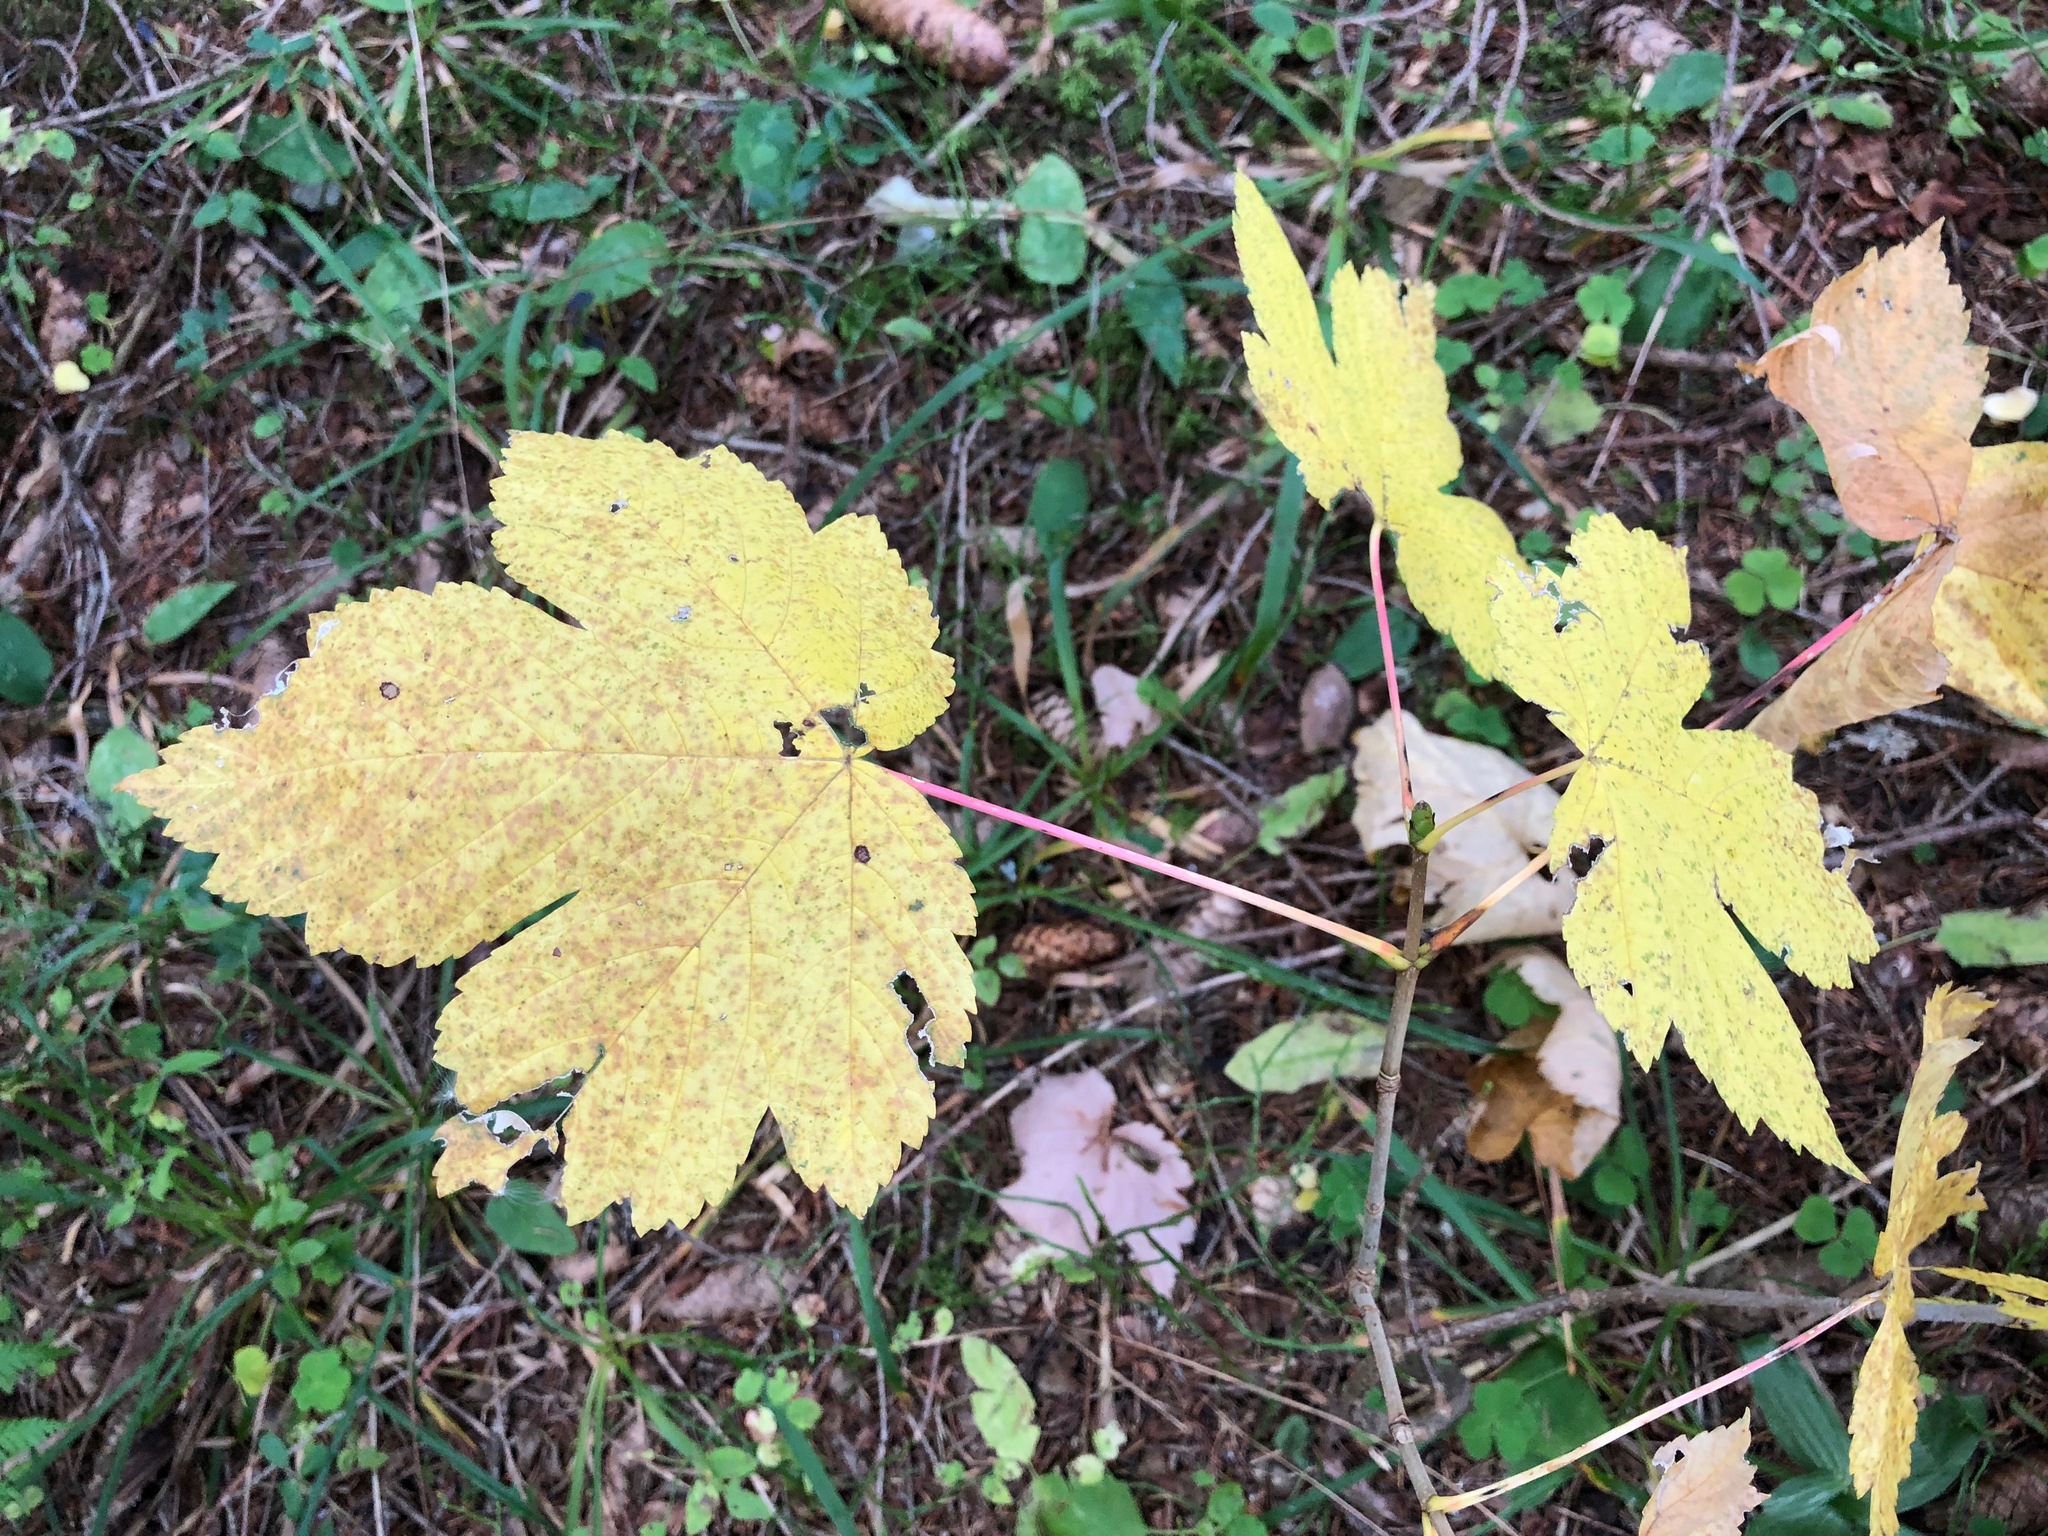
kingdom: Plantae
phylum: Tracheophyta
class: Magnoliopsida
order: Sapindales
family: Sapindaceae
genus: Acer
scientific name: Acer pseudoplatanus
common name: Sycamore
